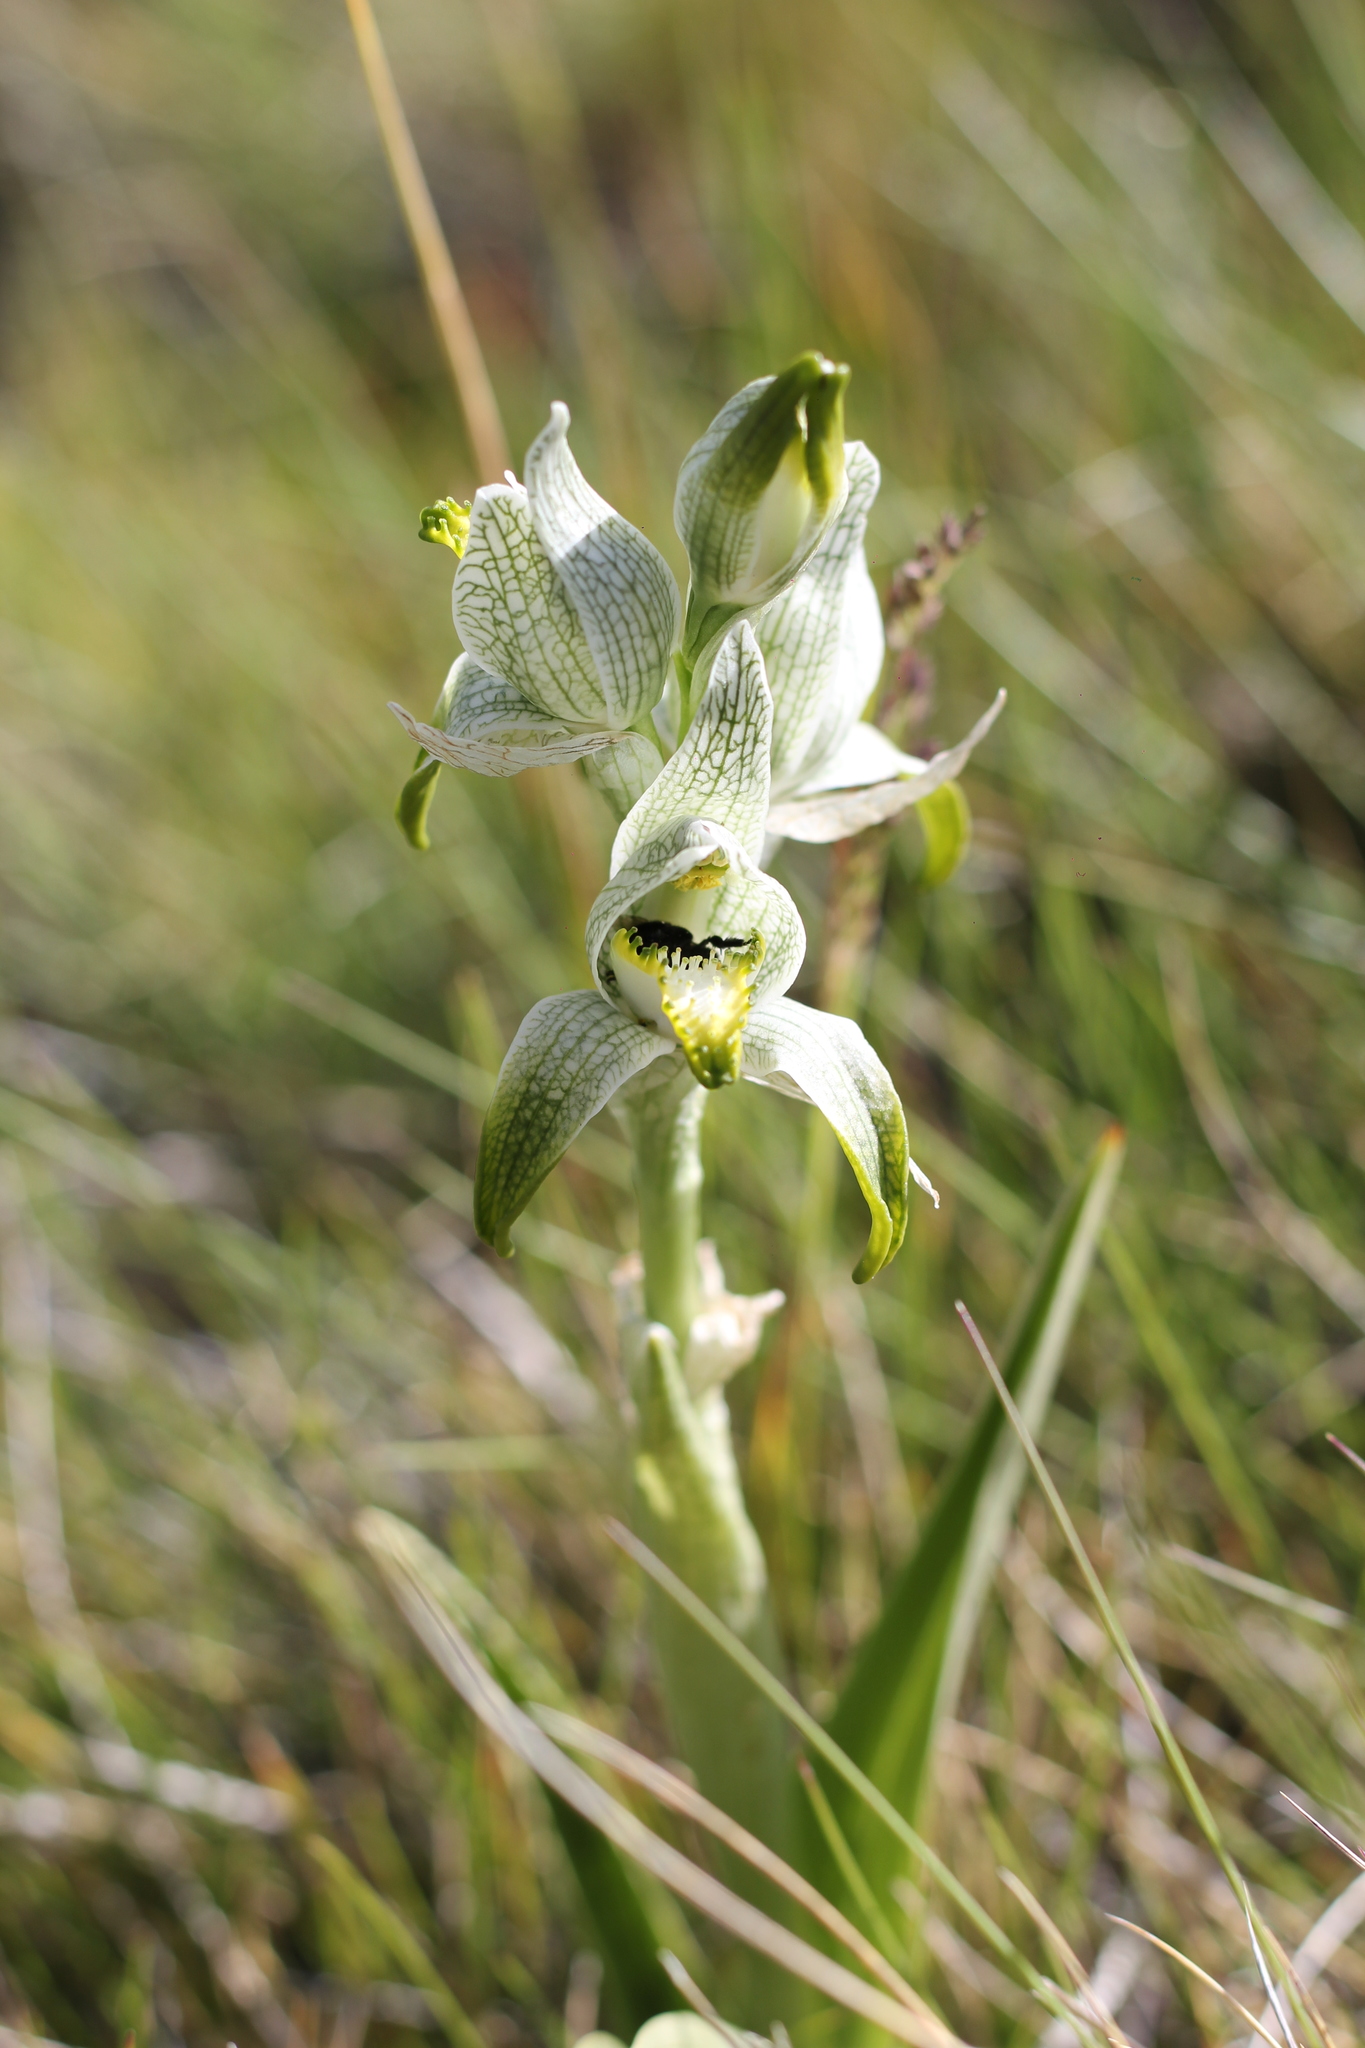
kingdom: Plantae
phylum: Tracheophyta
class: Liliopsida
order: Asparagales
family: Orchidaceae
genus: Chloraea
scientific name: Chloraea magellanica
